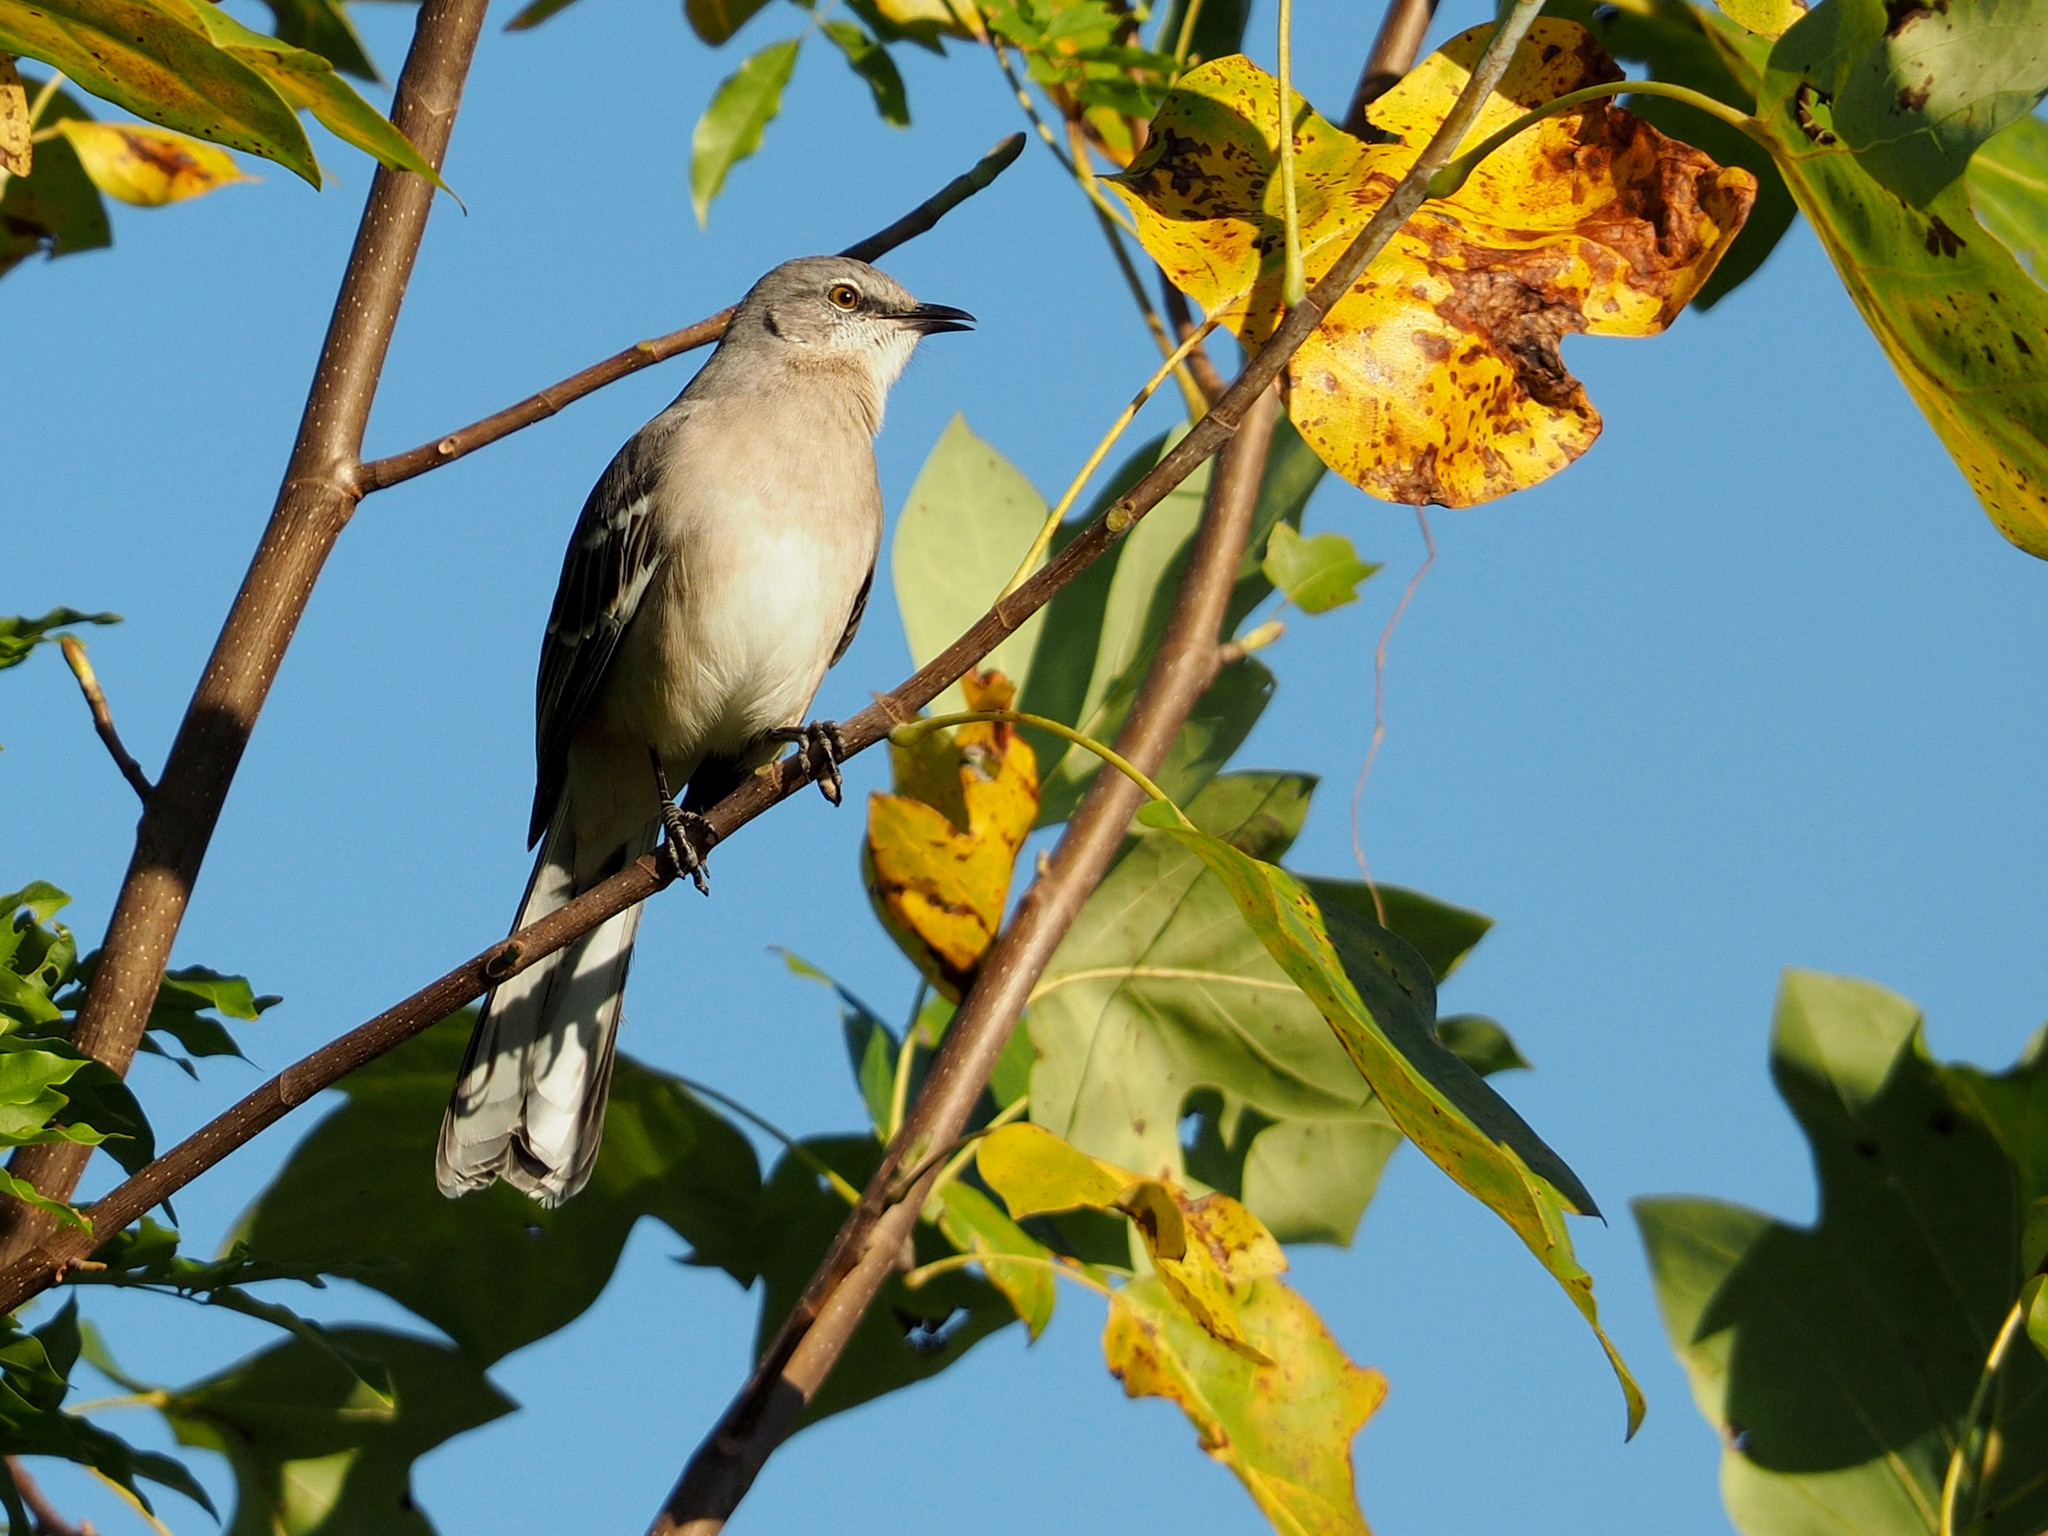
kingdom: Animalia
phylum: Chordata
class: Aves
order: Passeriformes
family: Mimidae
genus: Mimus
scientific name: Mimus polyglottos
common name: Northern mockingbird
